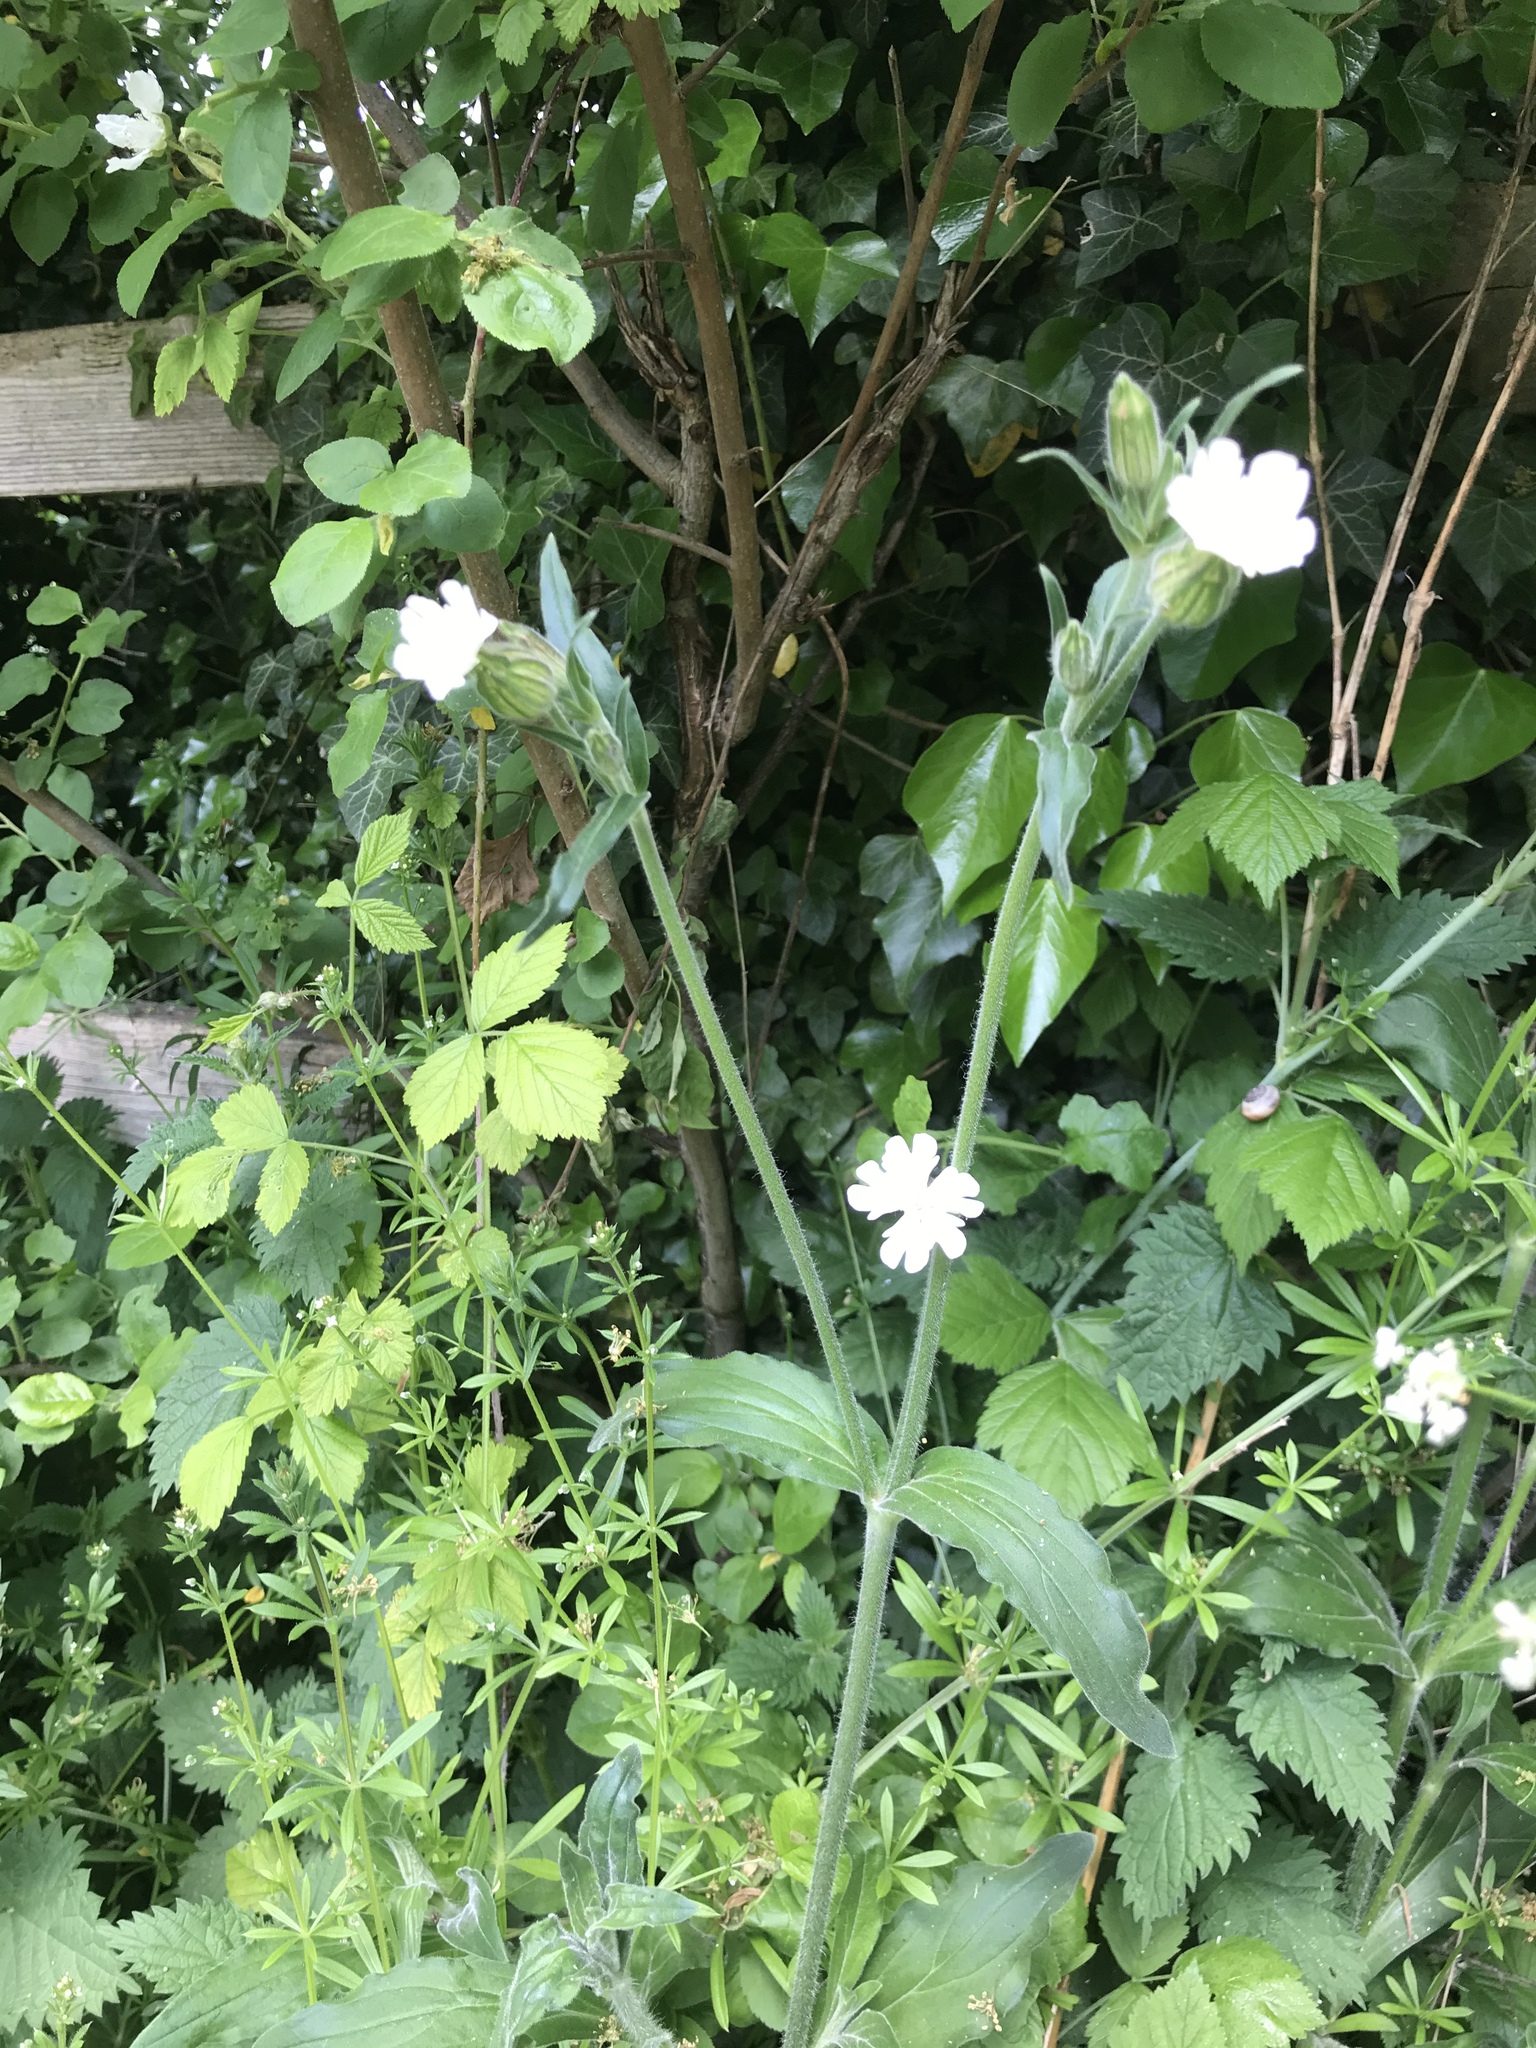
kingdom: Plantae
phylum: Tracheophyta
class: Magnoliopsida
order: Caryophyllales
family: Caryophyllaceae
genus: Silene
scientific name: Silene latifolia
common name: White campion
